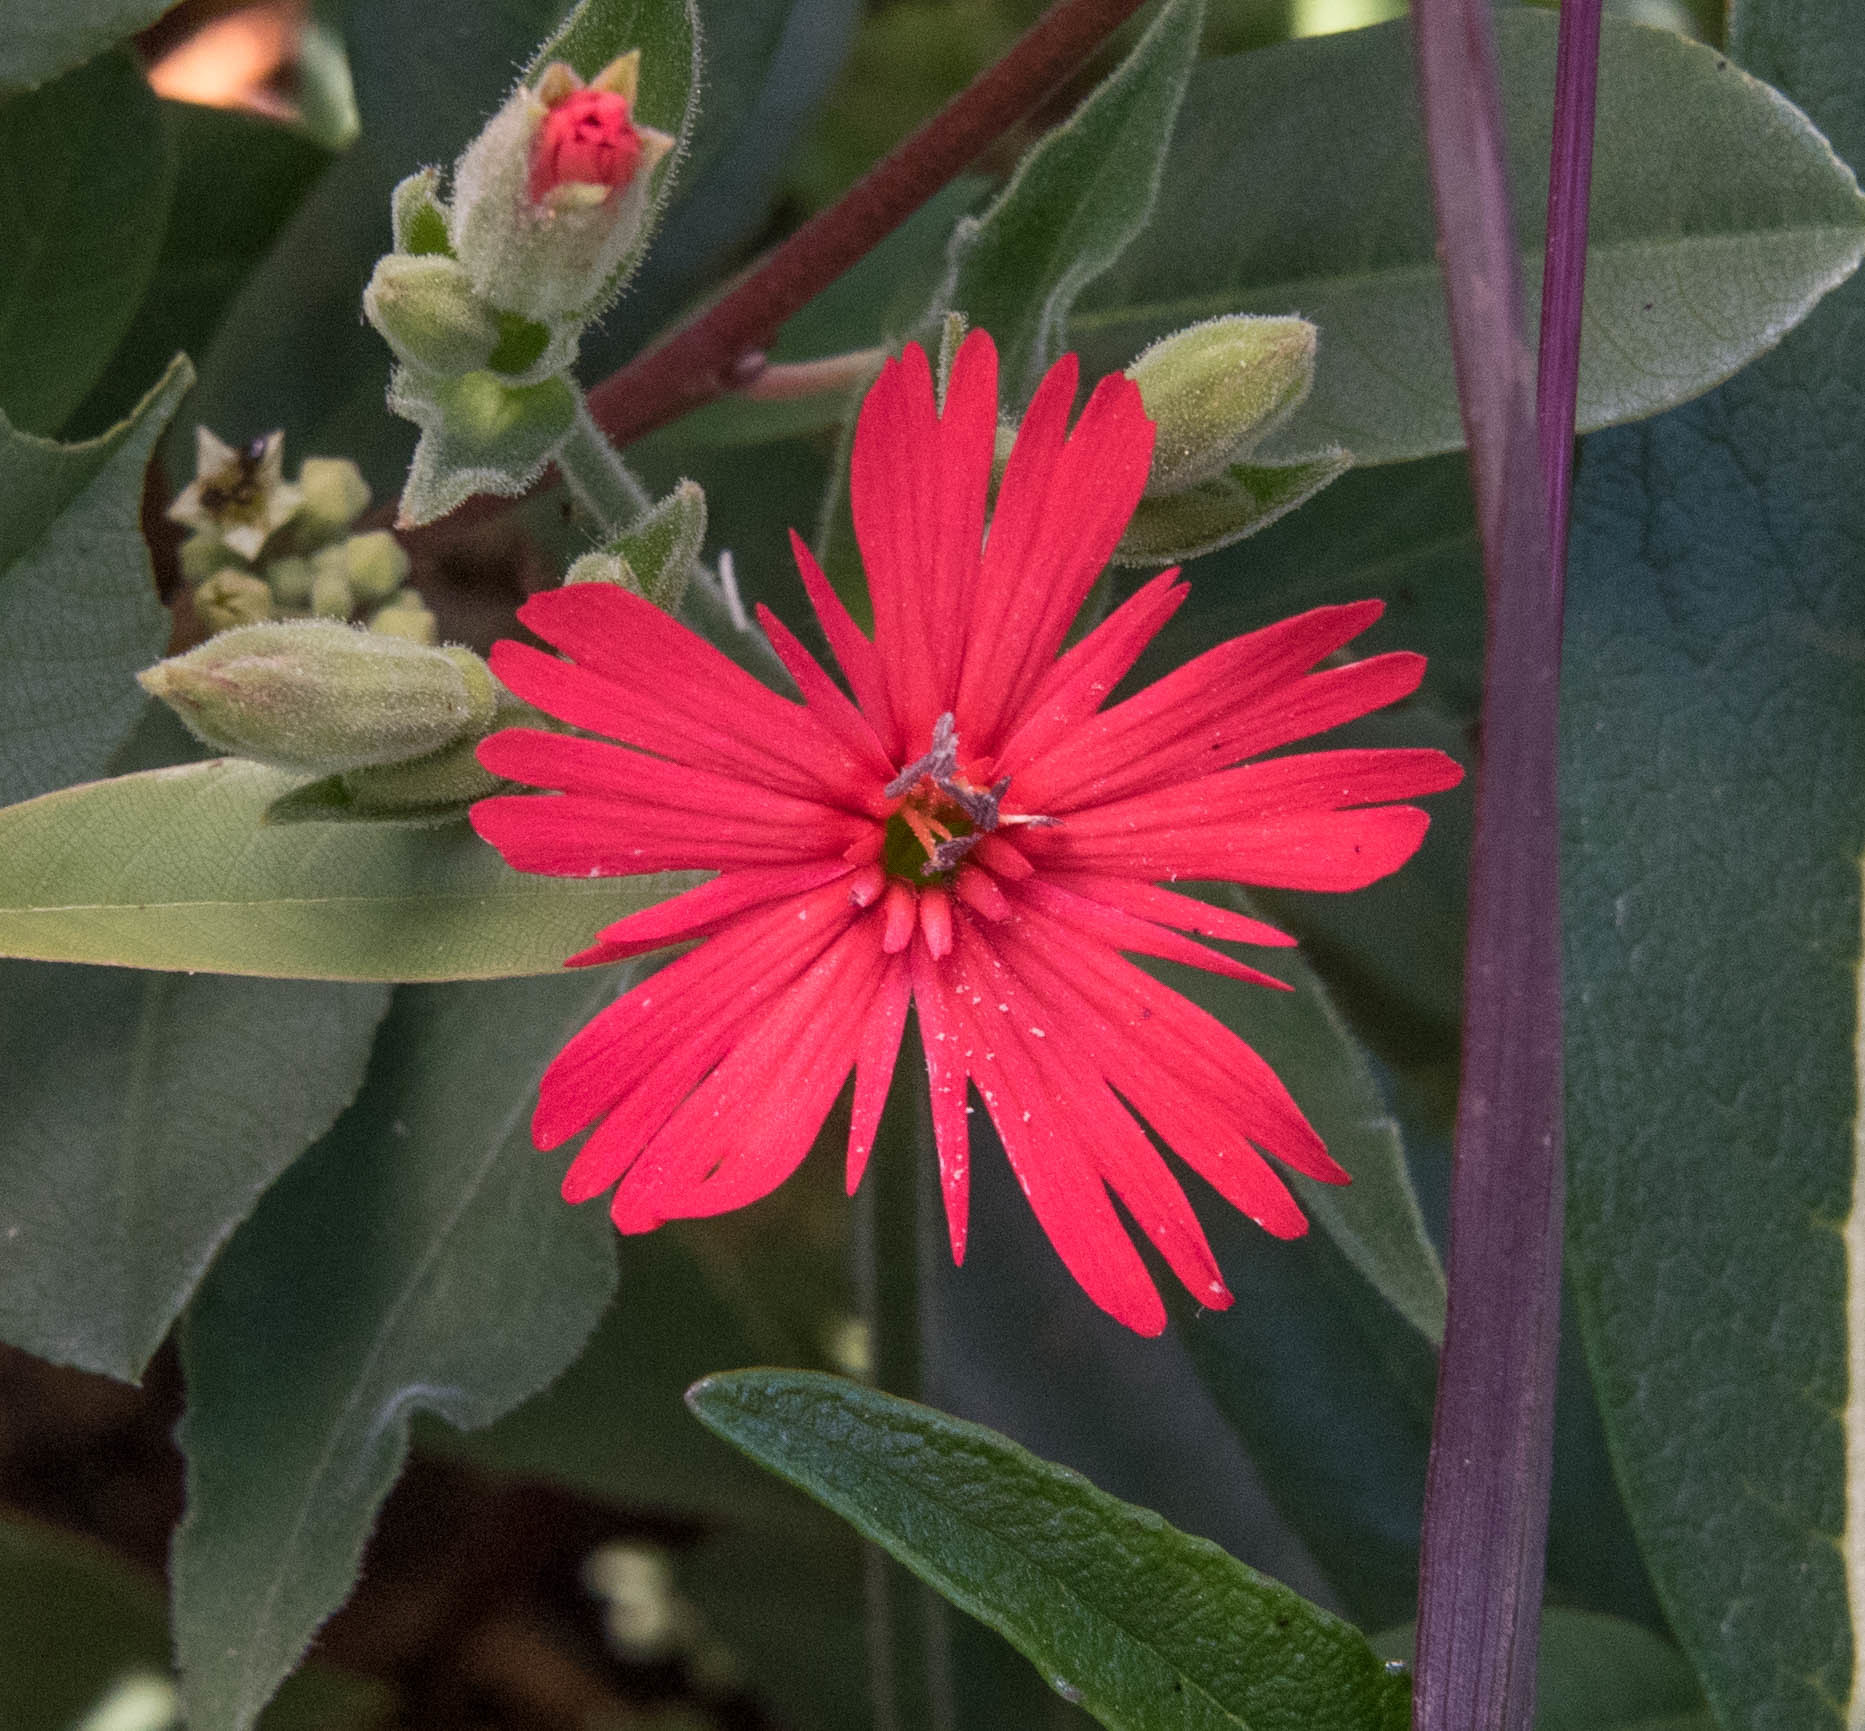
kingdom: Plantae
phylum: Tracheophyta
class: Magnoliopsida
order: Caryophyllales
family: Caryophyllaceae
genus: Silene
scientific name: Silene laciniata
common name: Indian-pink
